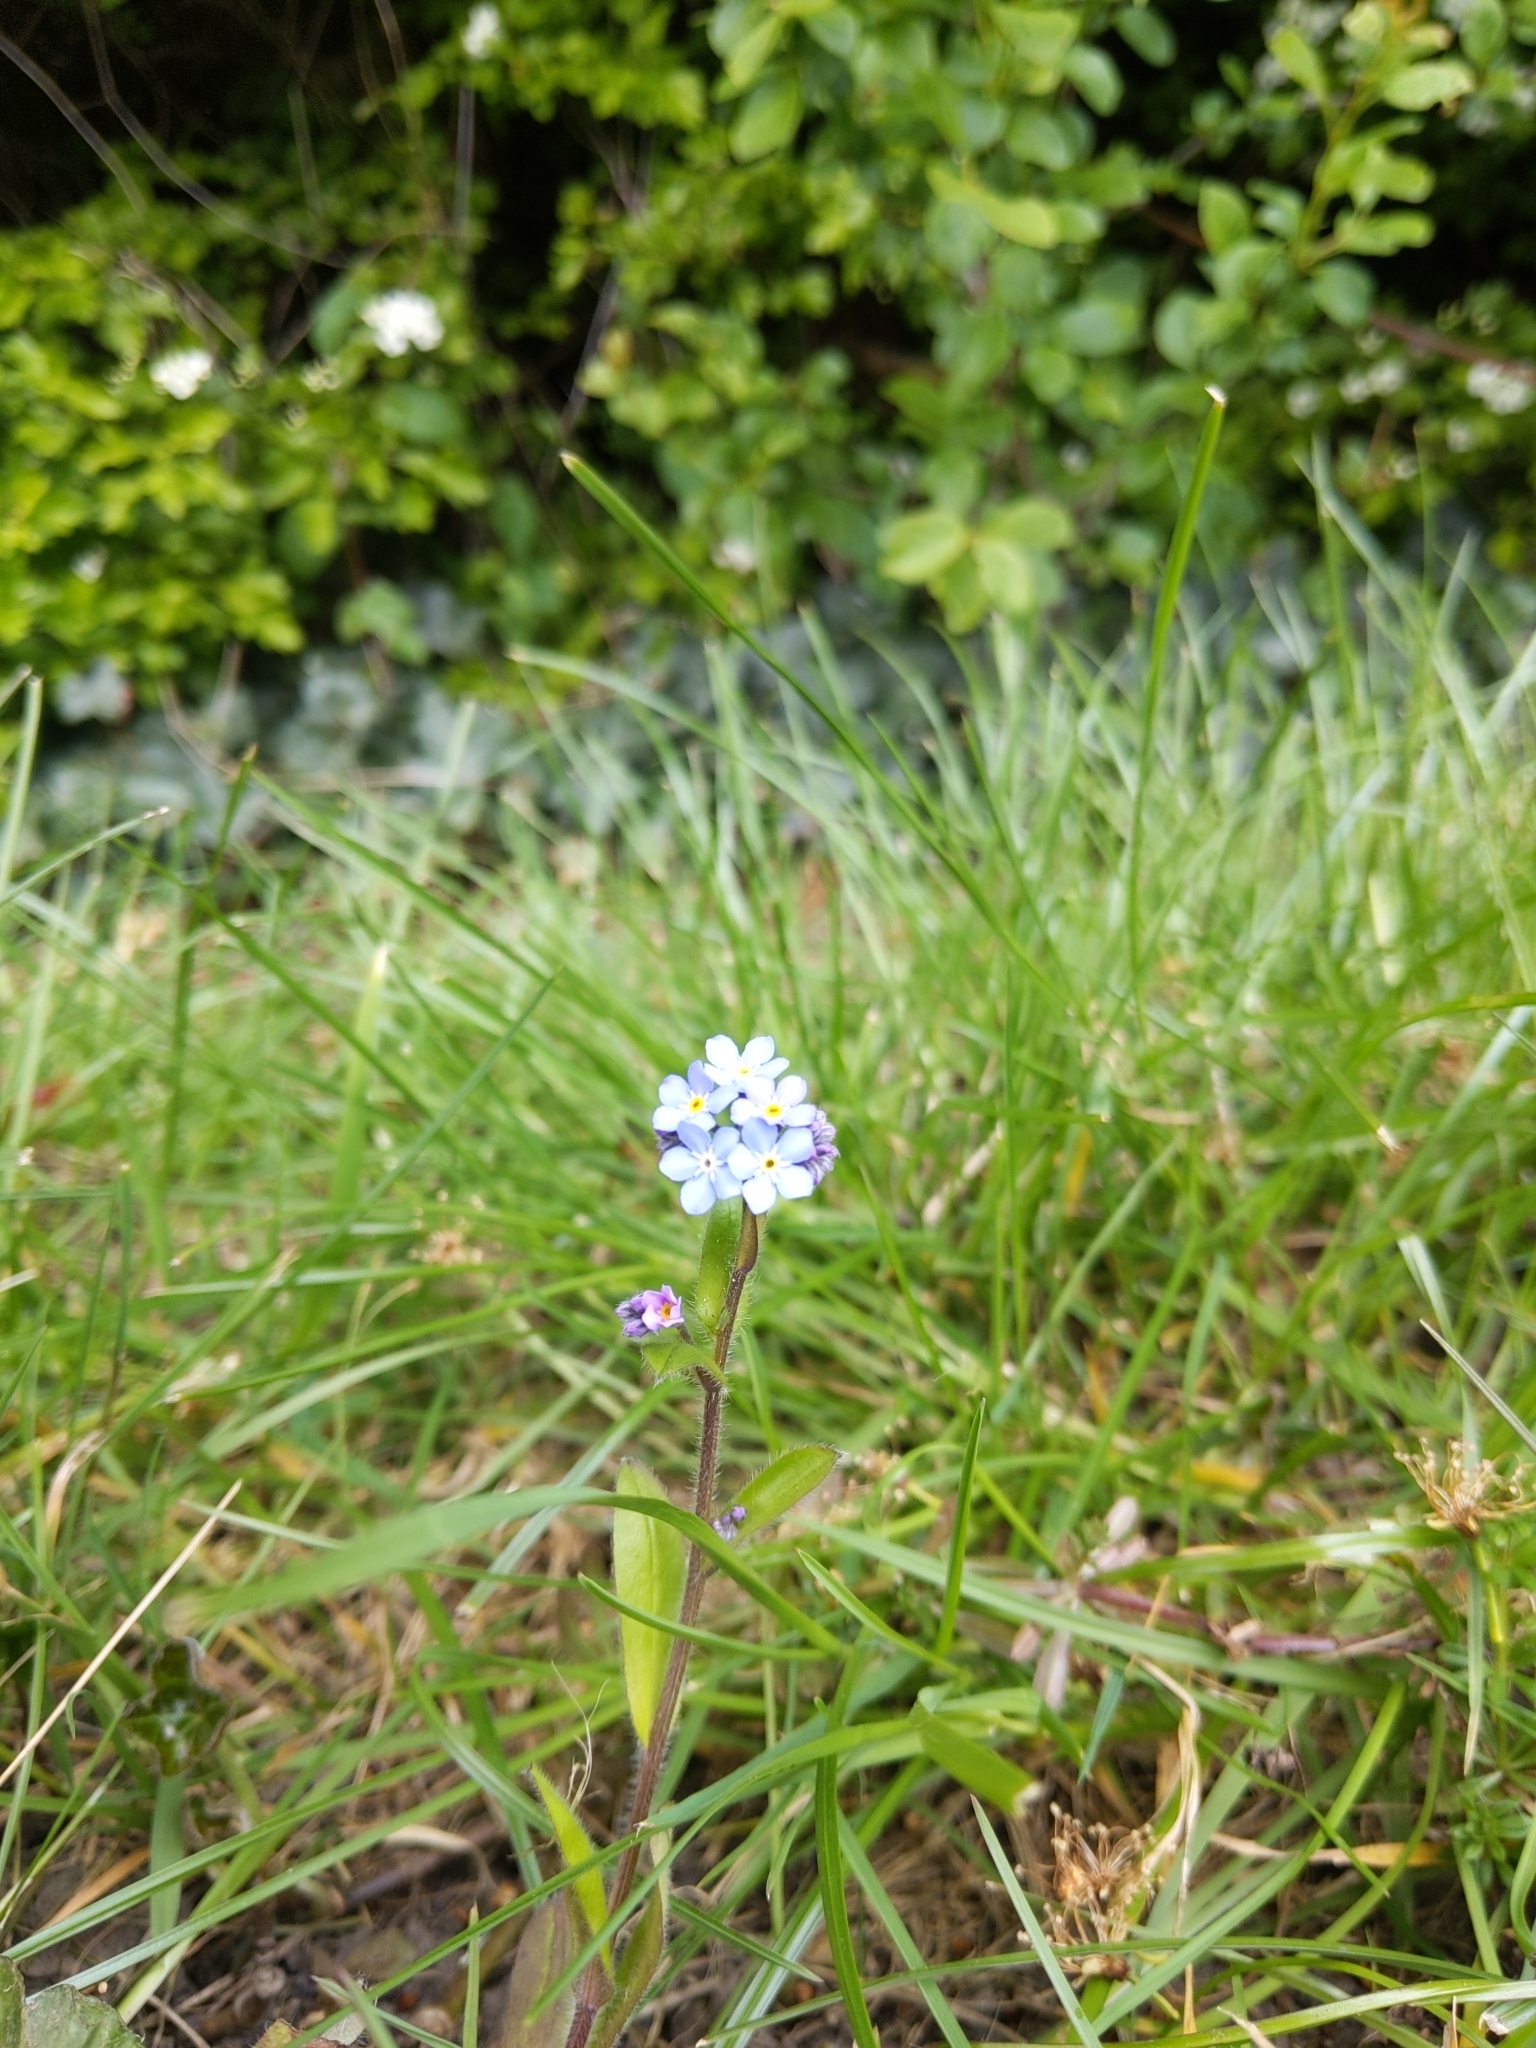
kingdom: Plantae
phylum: Tracheophyta
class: Magnoliopsida
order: Boraginales
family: Boraginaceae
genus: Myosotis
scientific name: Myosotis sylvatica
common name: Wood forget-me-not
